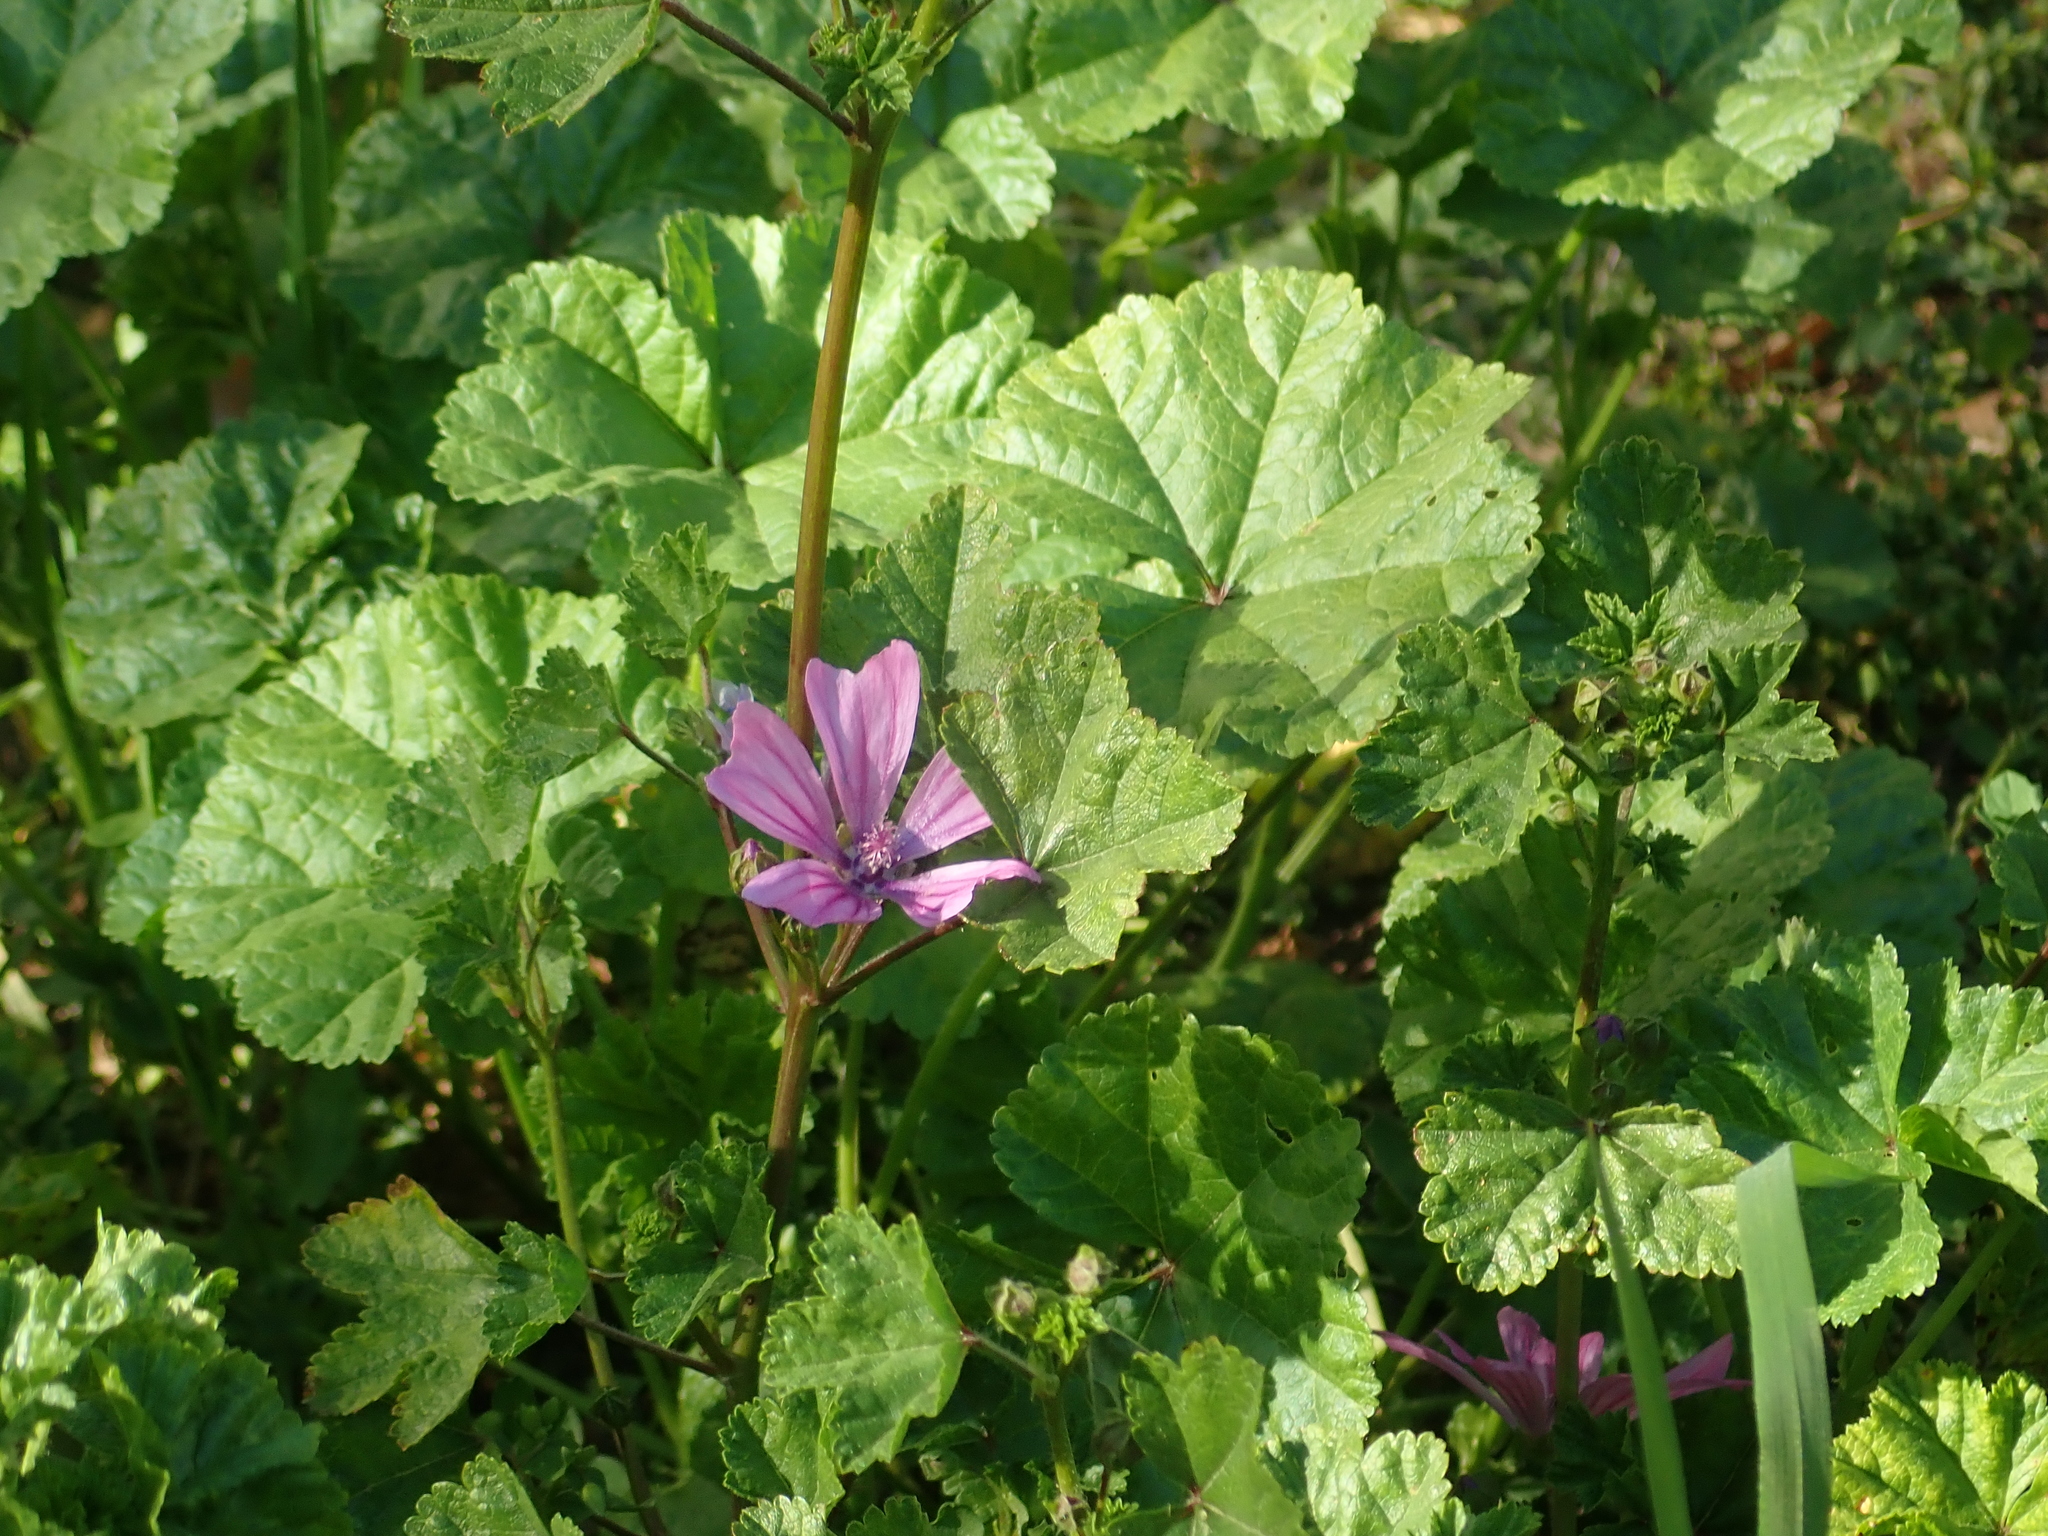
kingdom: Plantae
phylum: Tracheophyta
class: Magnoliopsida
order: Malvales
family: Malvaceae
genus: Malva
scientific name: Malva sylvestris
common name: Common mallow
